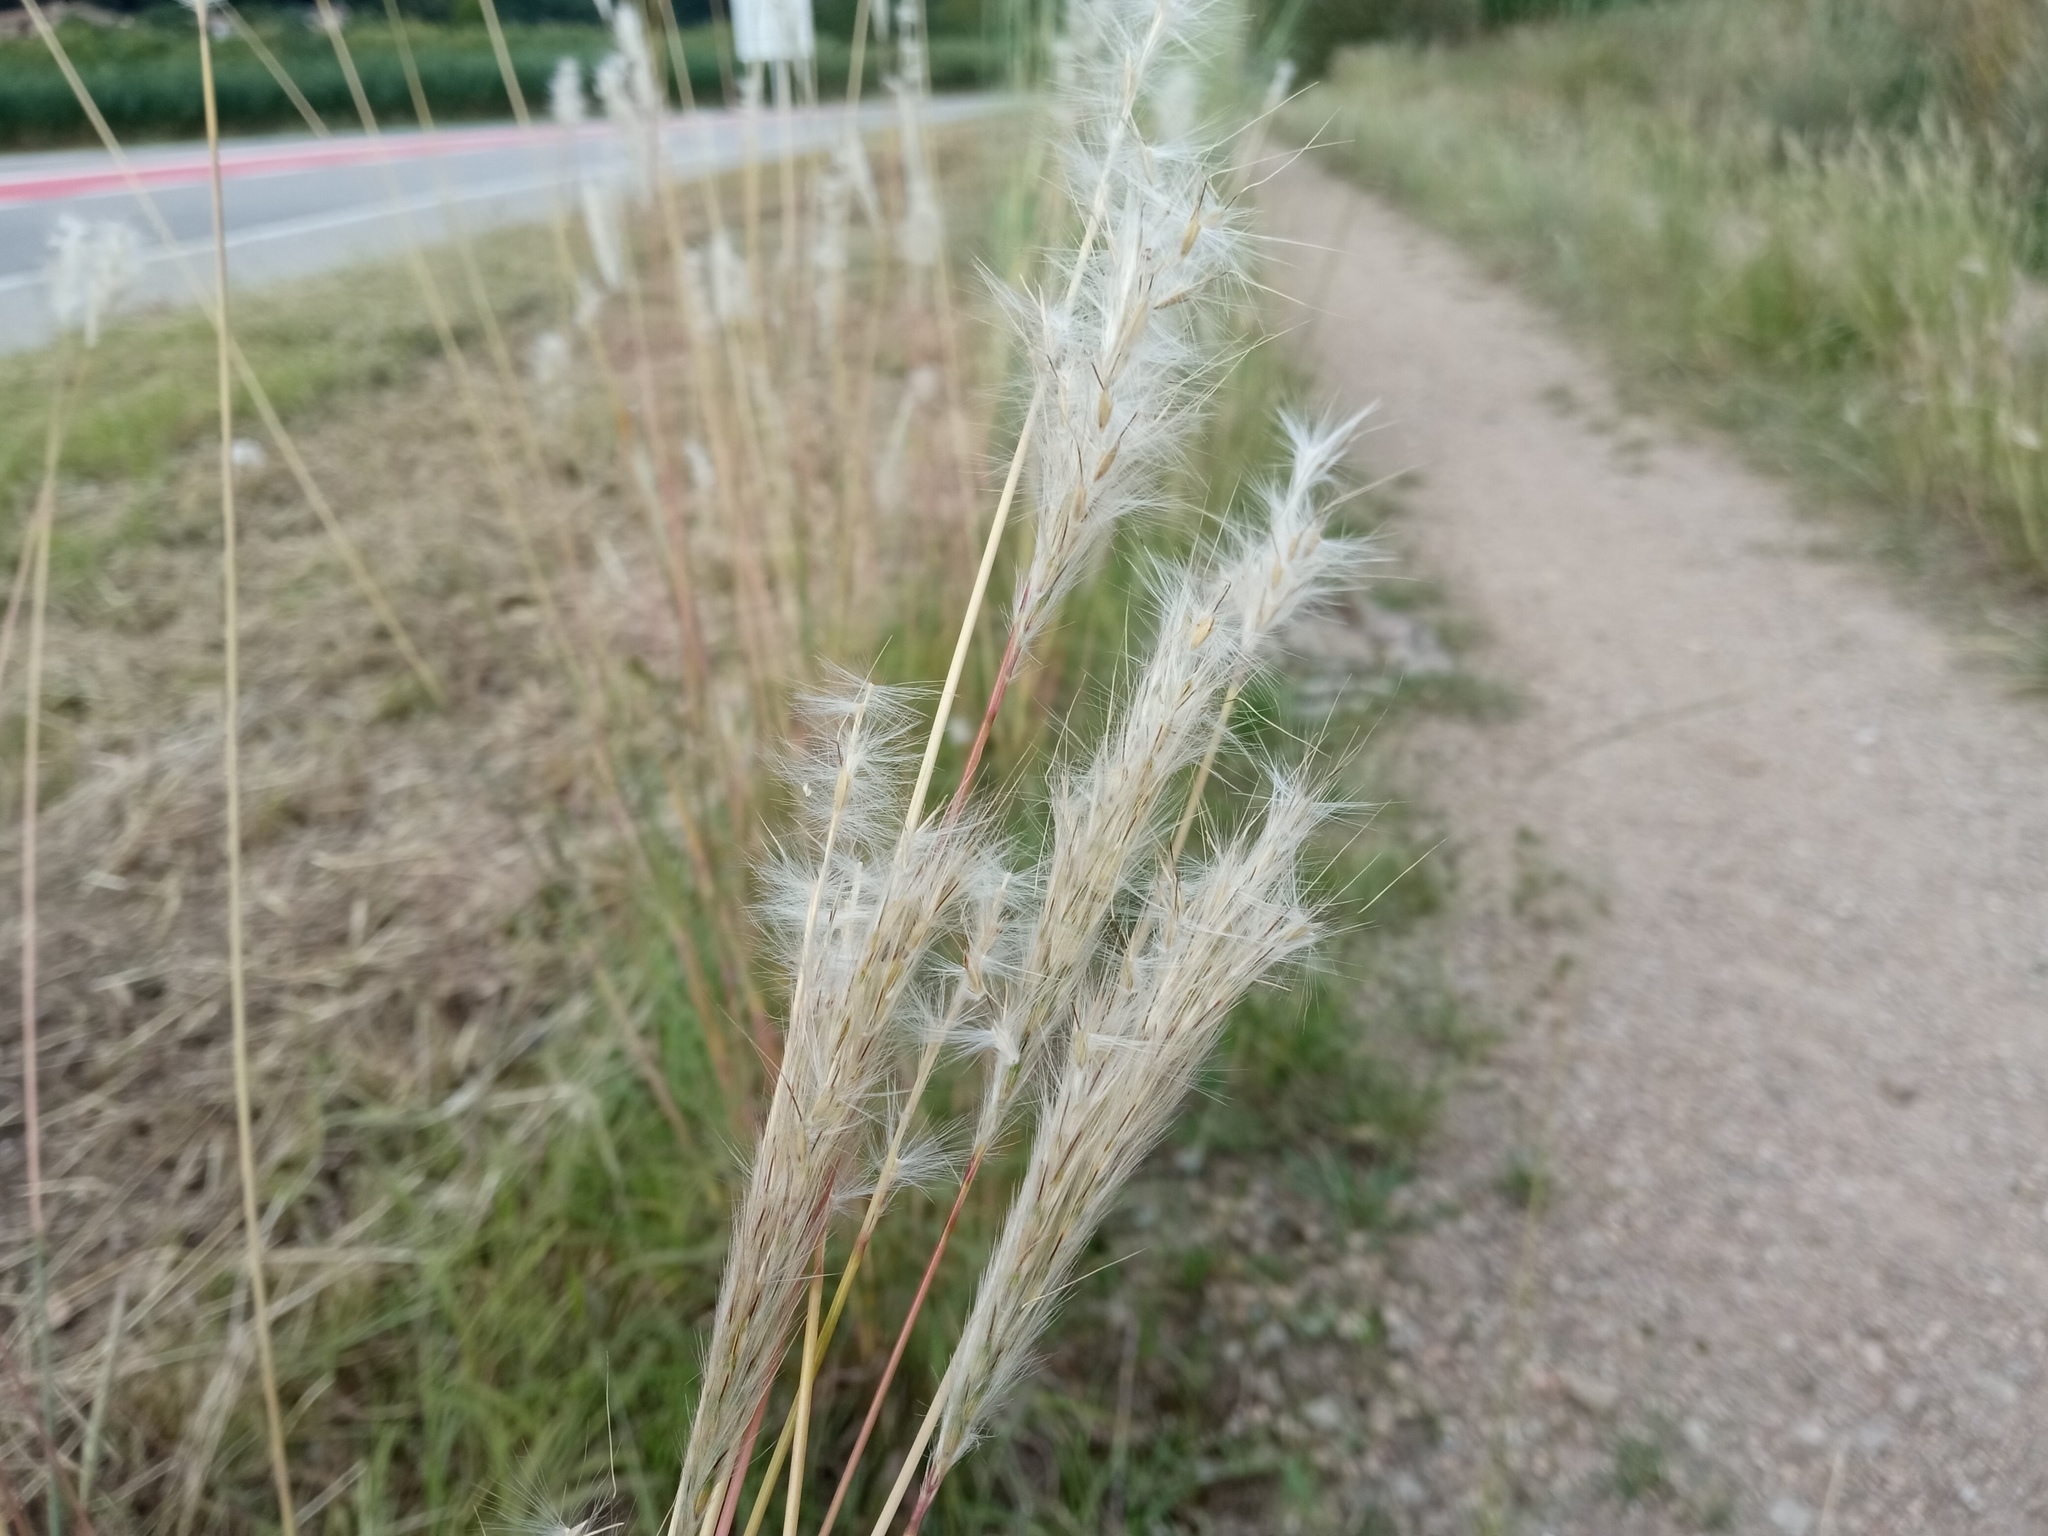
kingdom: Plantae
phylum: Tracheophyta
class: Liliopsida
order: Poales
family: Poaceae
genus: Bothriochloa
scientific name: Bothriochloa barbinodis
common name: Cane bluestem
